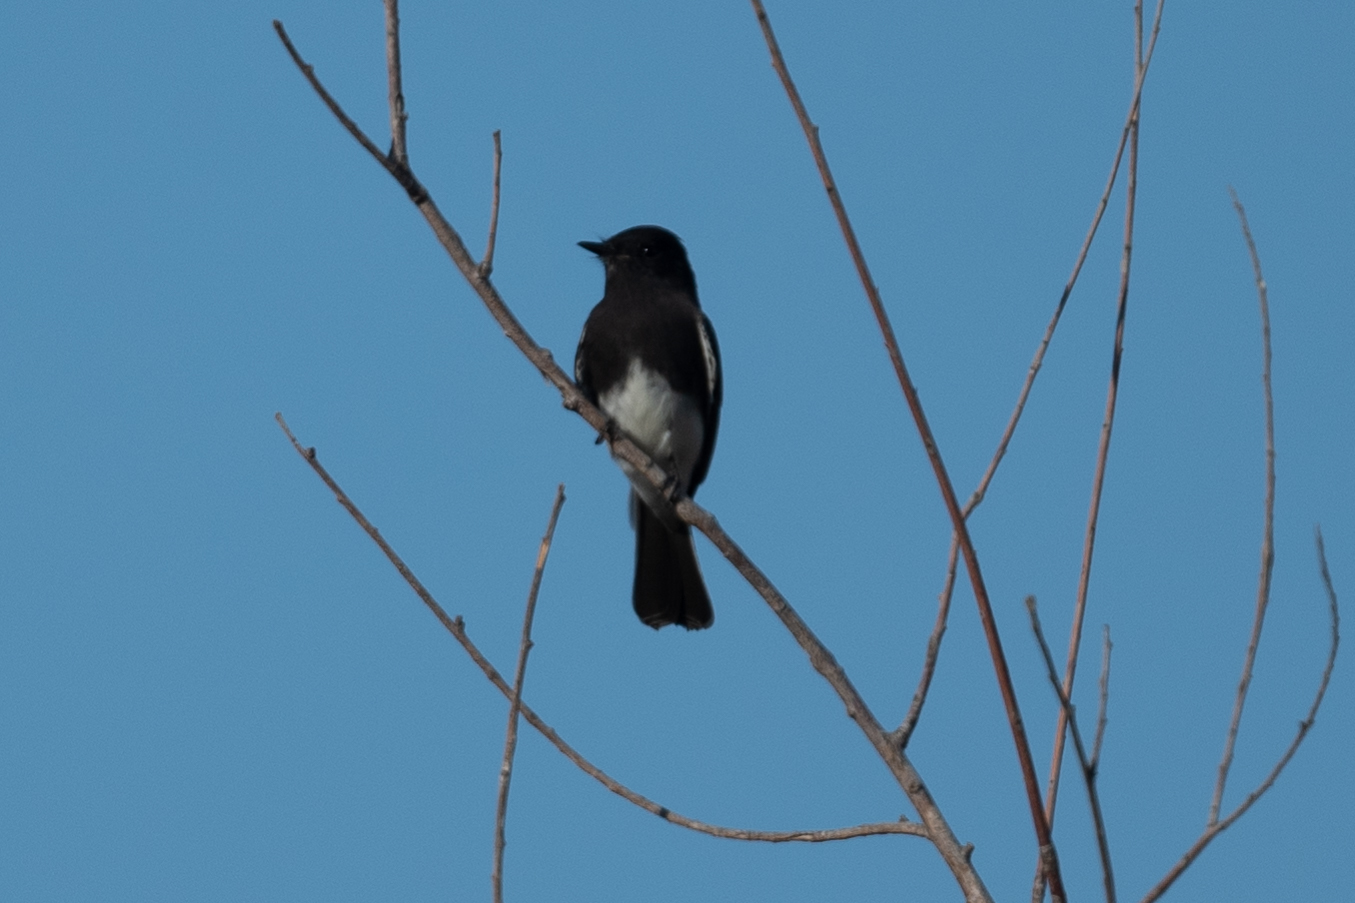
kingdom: Animalia
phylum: Chordata
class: Aves
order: Passeriformes
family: Tyrannidae
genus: Sayornis
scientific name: Sayornis nigricans
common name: Black phoebe
